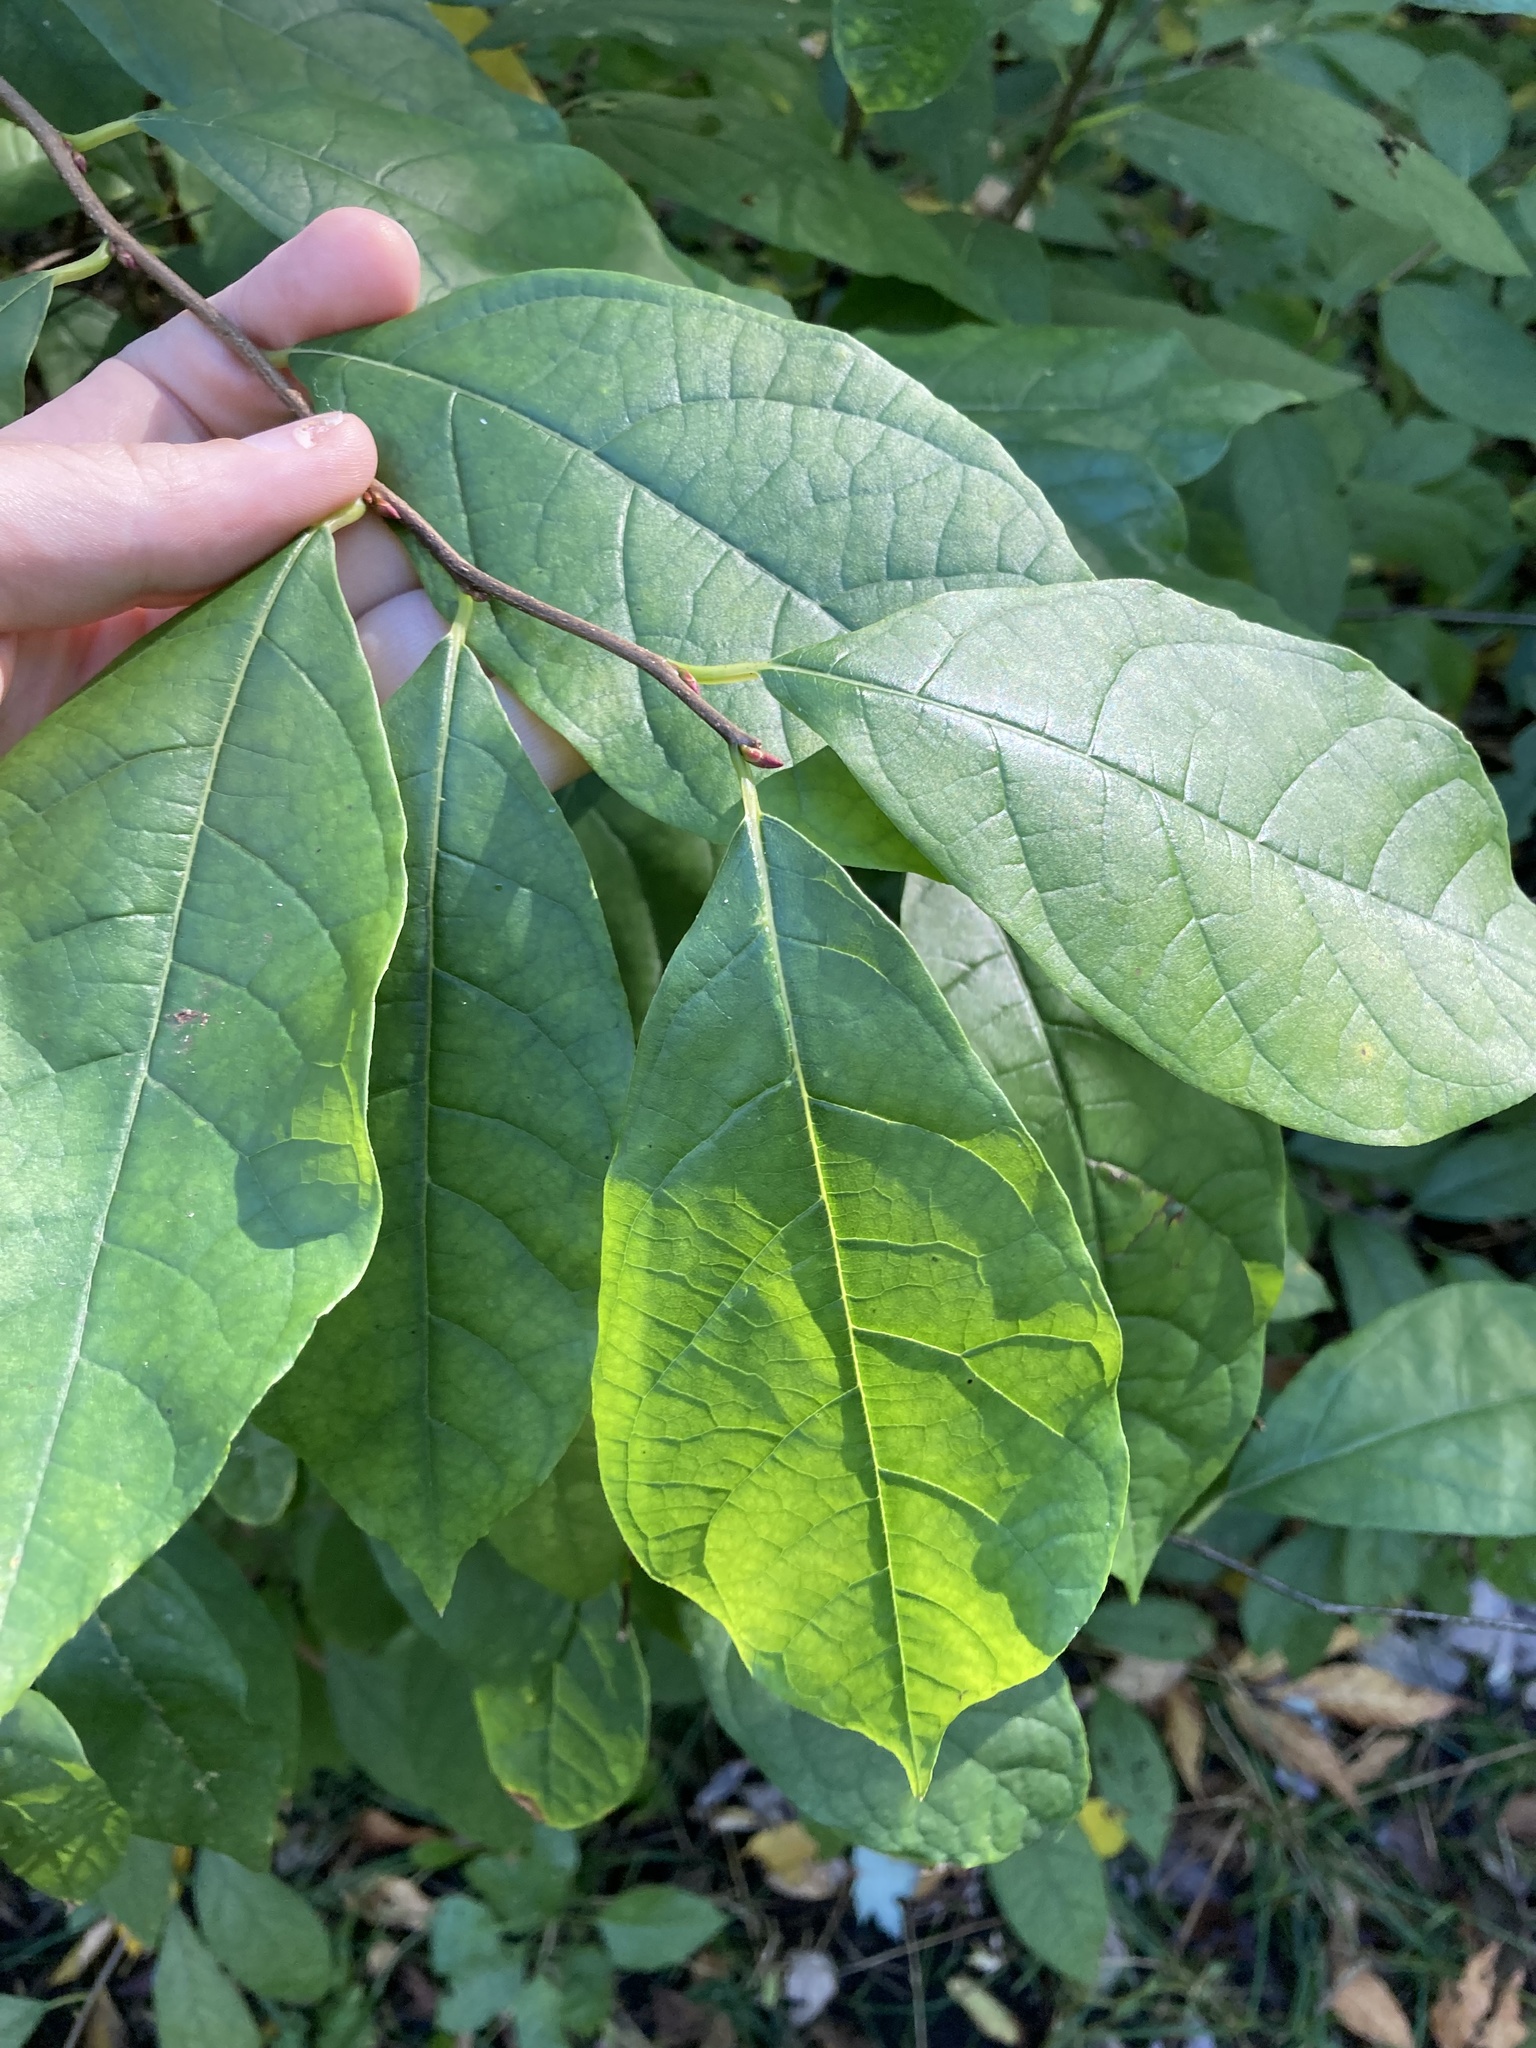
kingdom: Plantae
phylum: Tracheophyta
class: Magnoliopsida
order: Laurales
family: Lauraceae
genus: Lindera
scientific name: Lindera benzoin
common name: Spicebush
